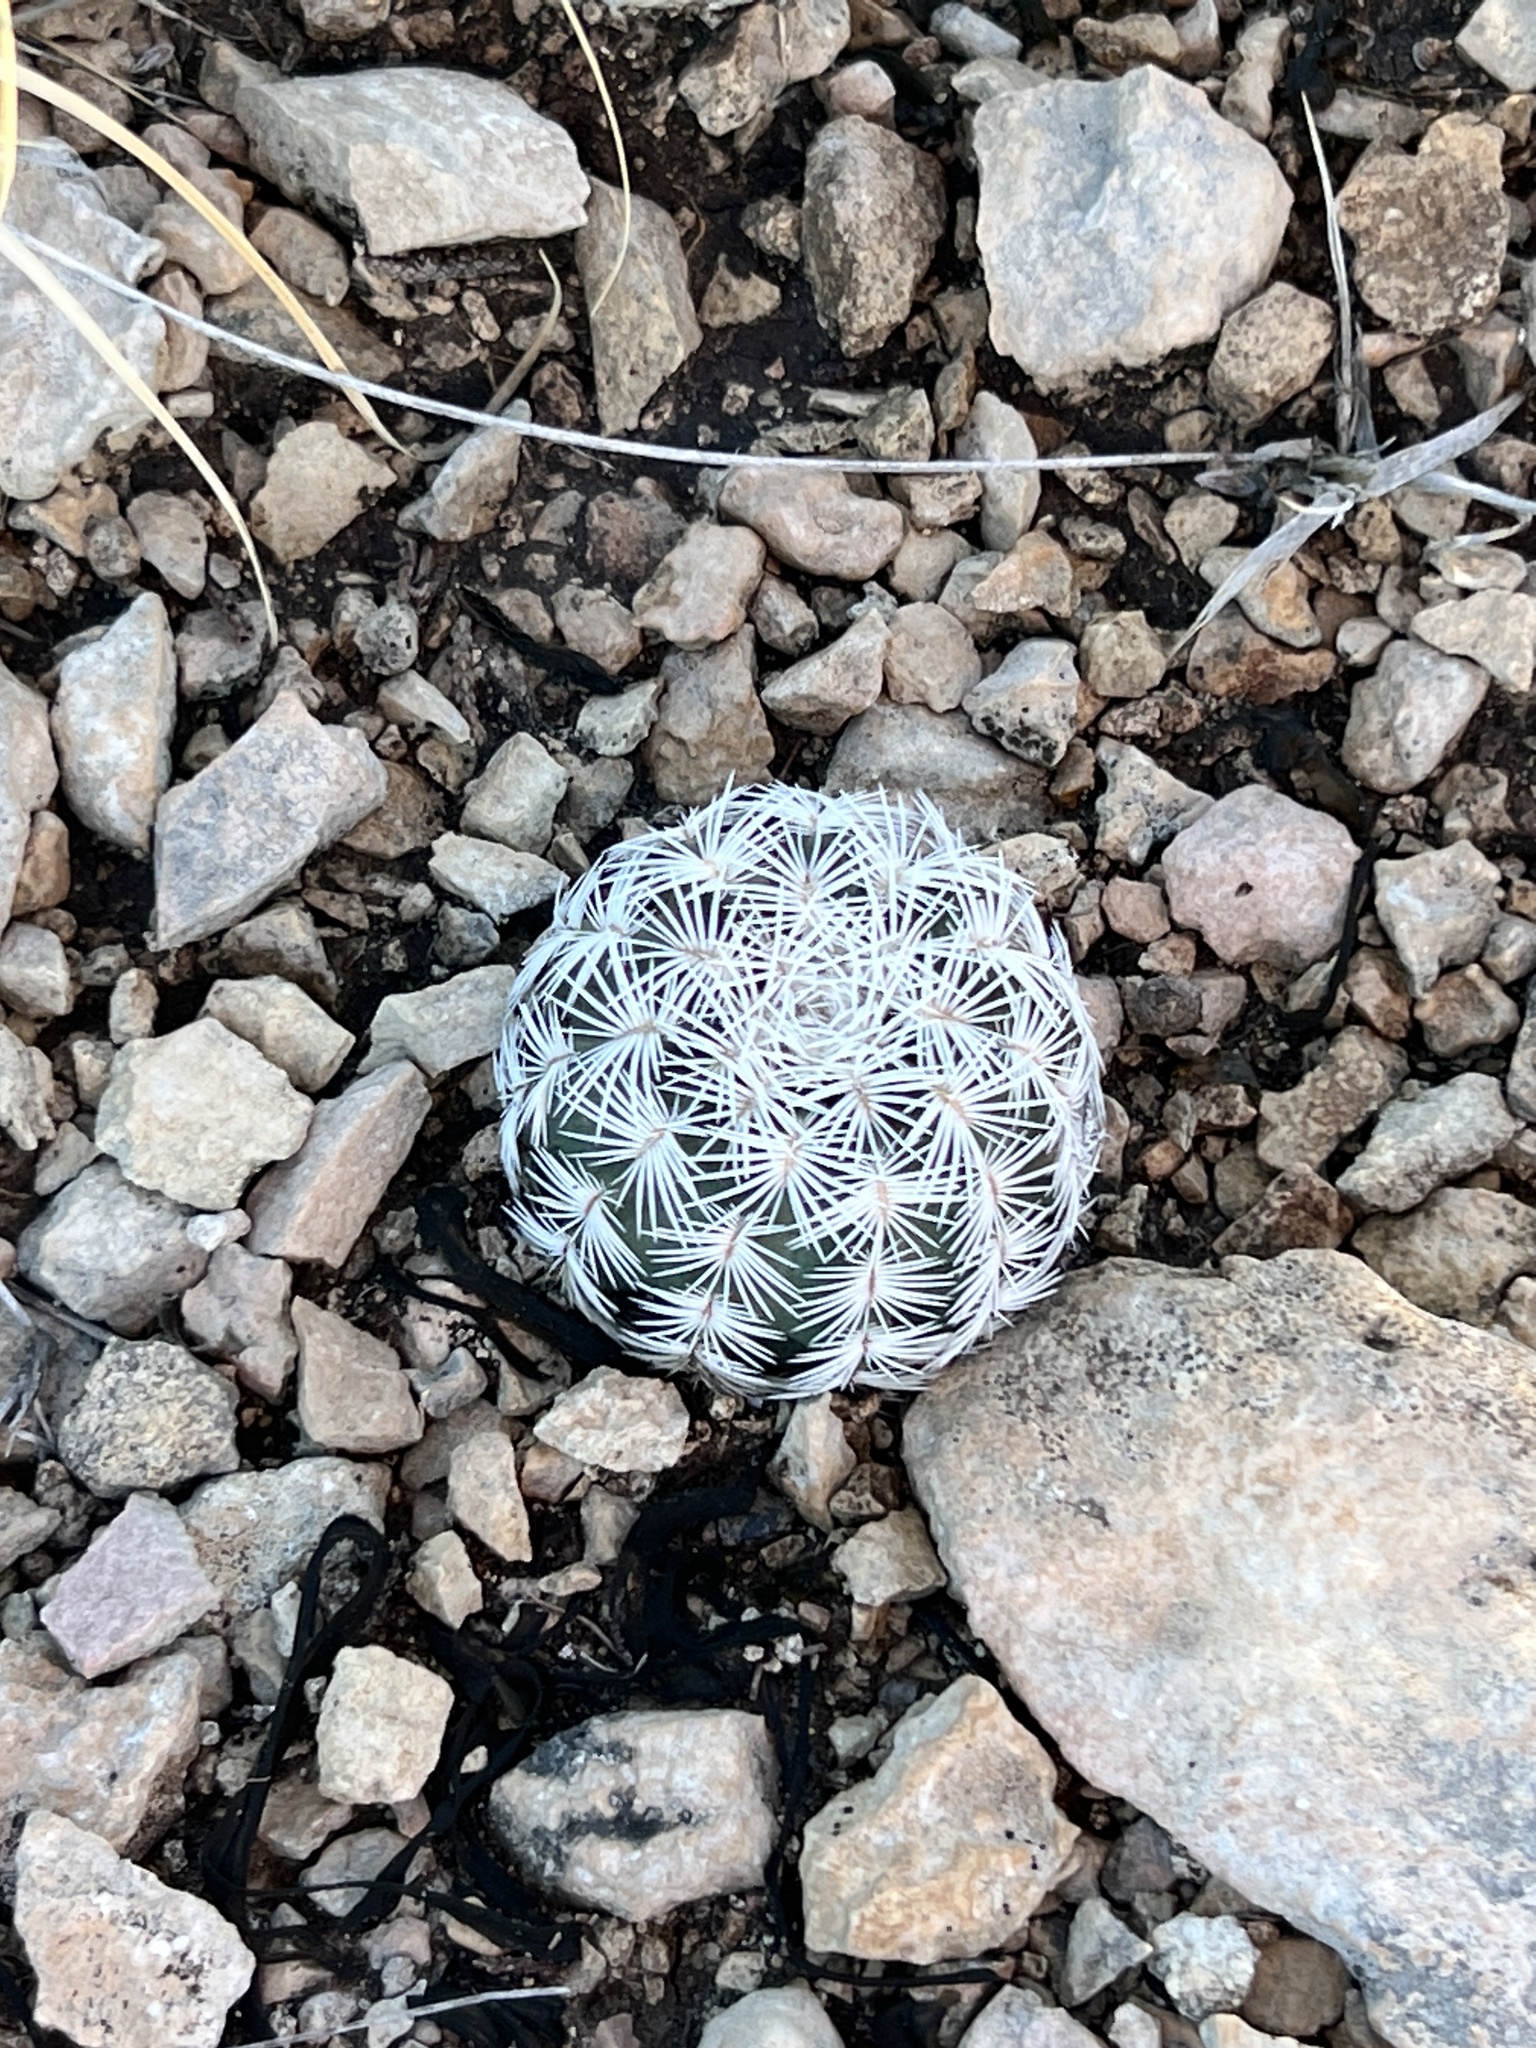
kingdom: Plantae
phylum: Tracheophyta
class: Magnoliopsida
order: Caryophyllales
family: Cactaceae
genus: Echinocereus
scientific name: Echinocereus reichenbachii
